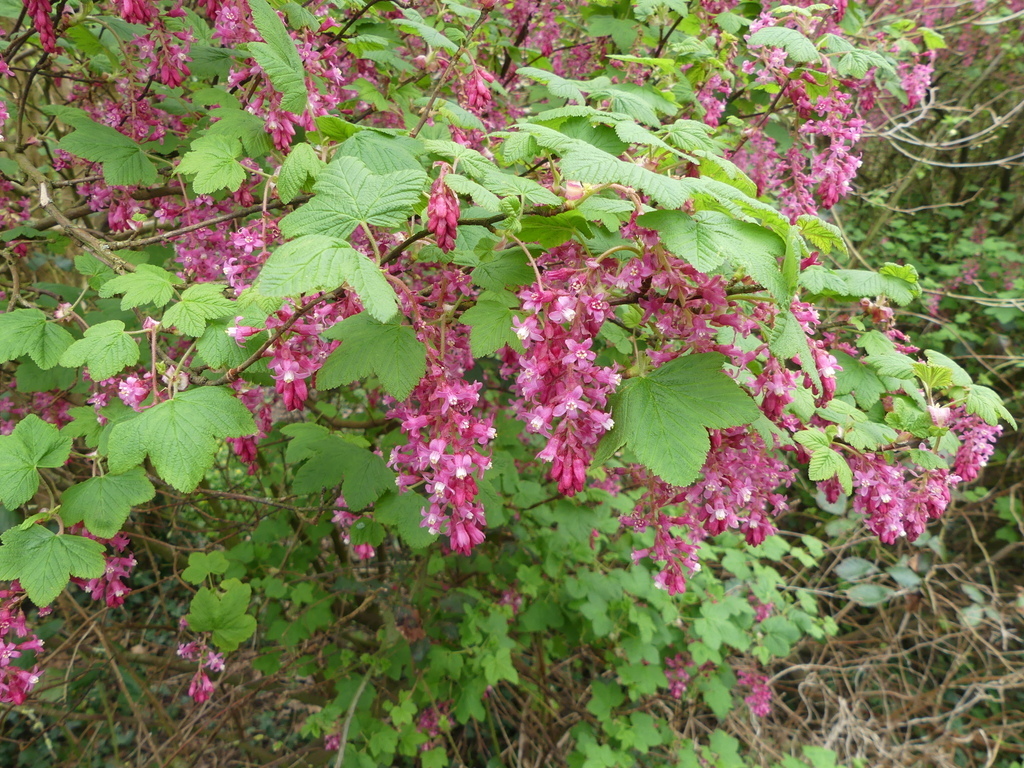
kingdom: Plantae
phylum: Tracheophyta
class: Magnoliopsida
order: Saxifragales
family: Grossulariaceae
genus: Ribes
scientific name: Ribes sanguineum
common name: Flowering currant
